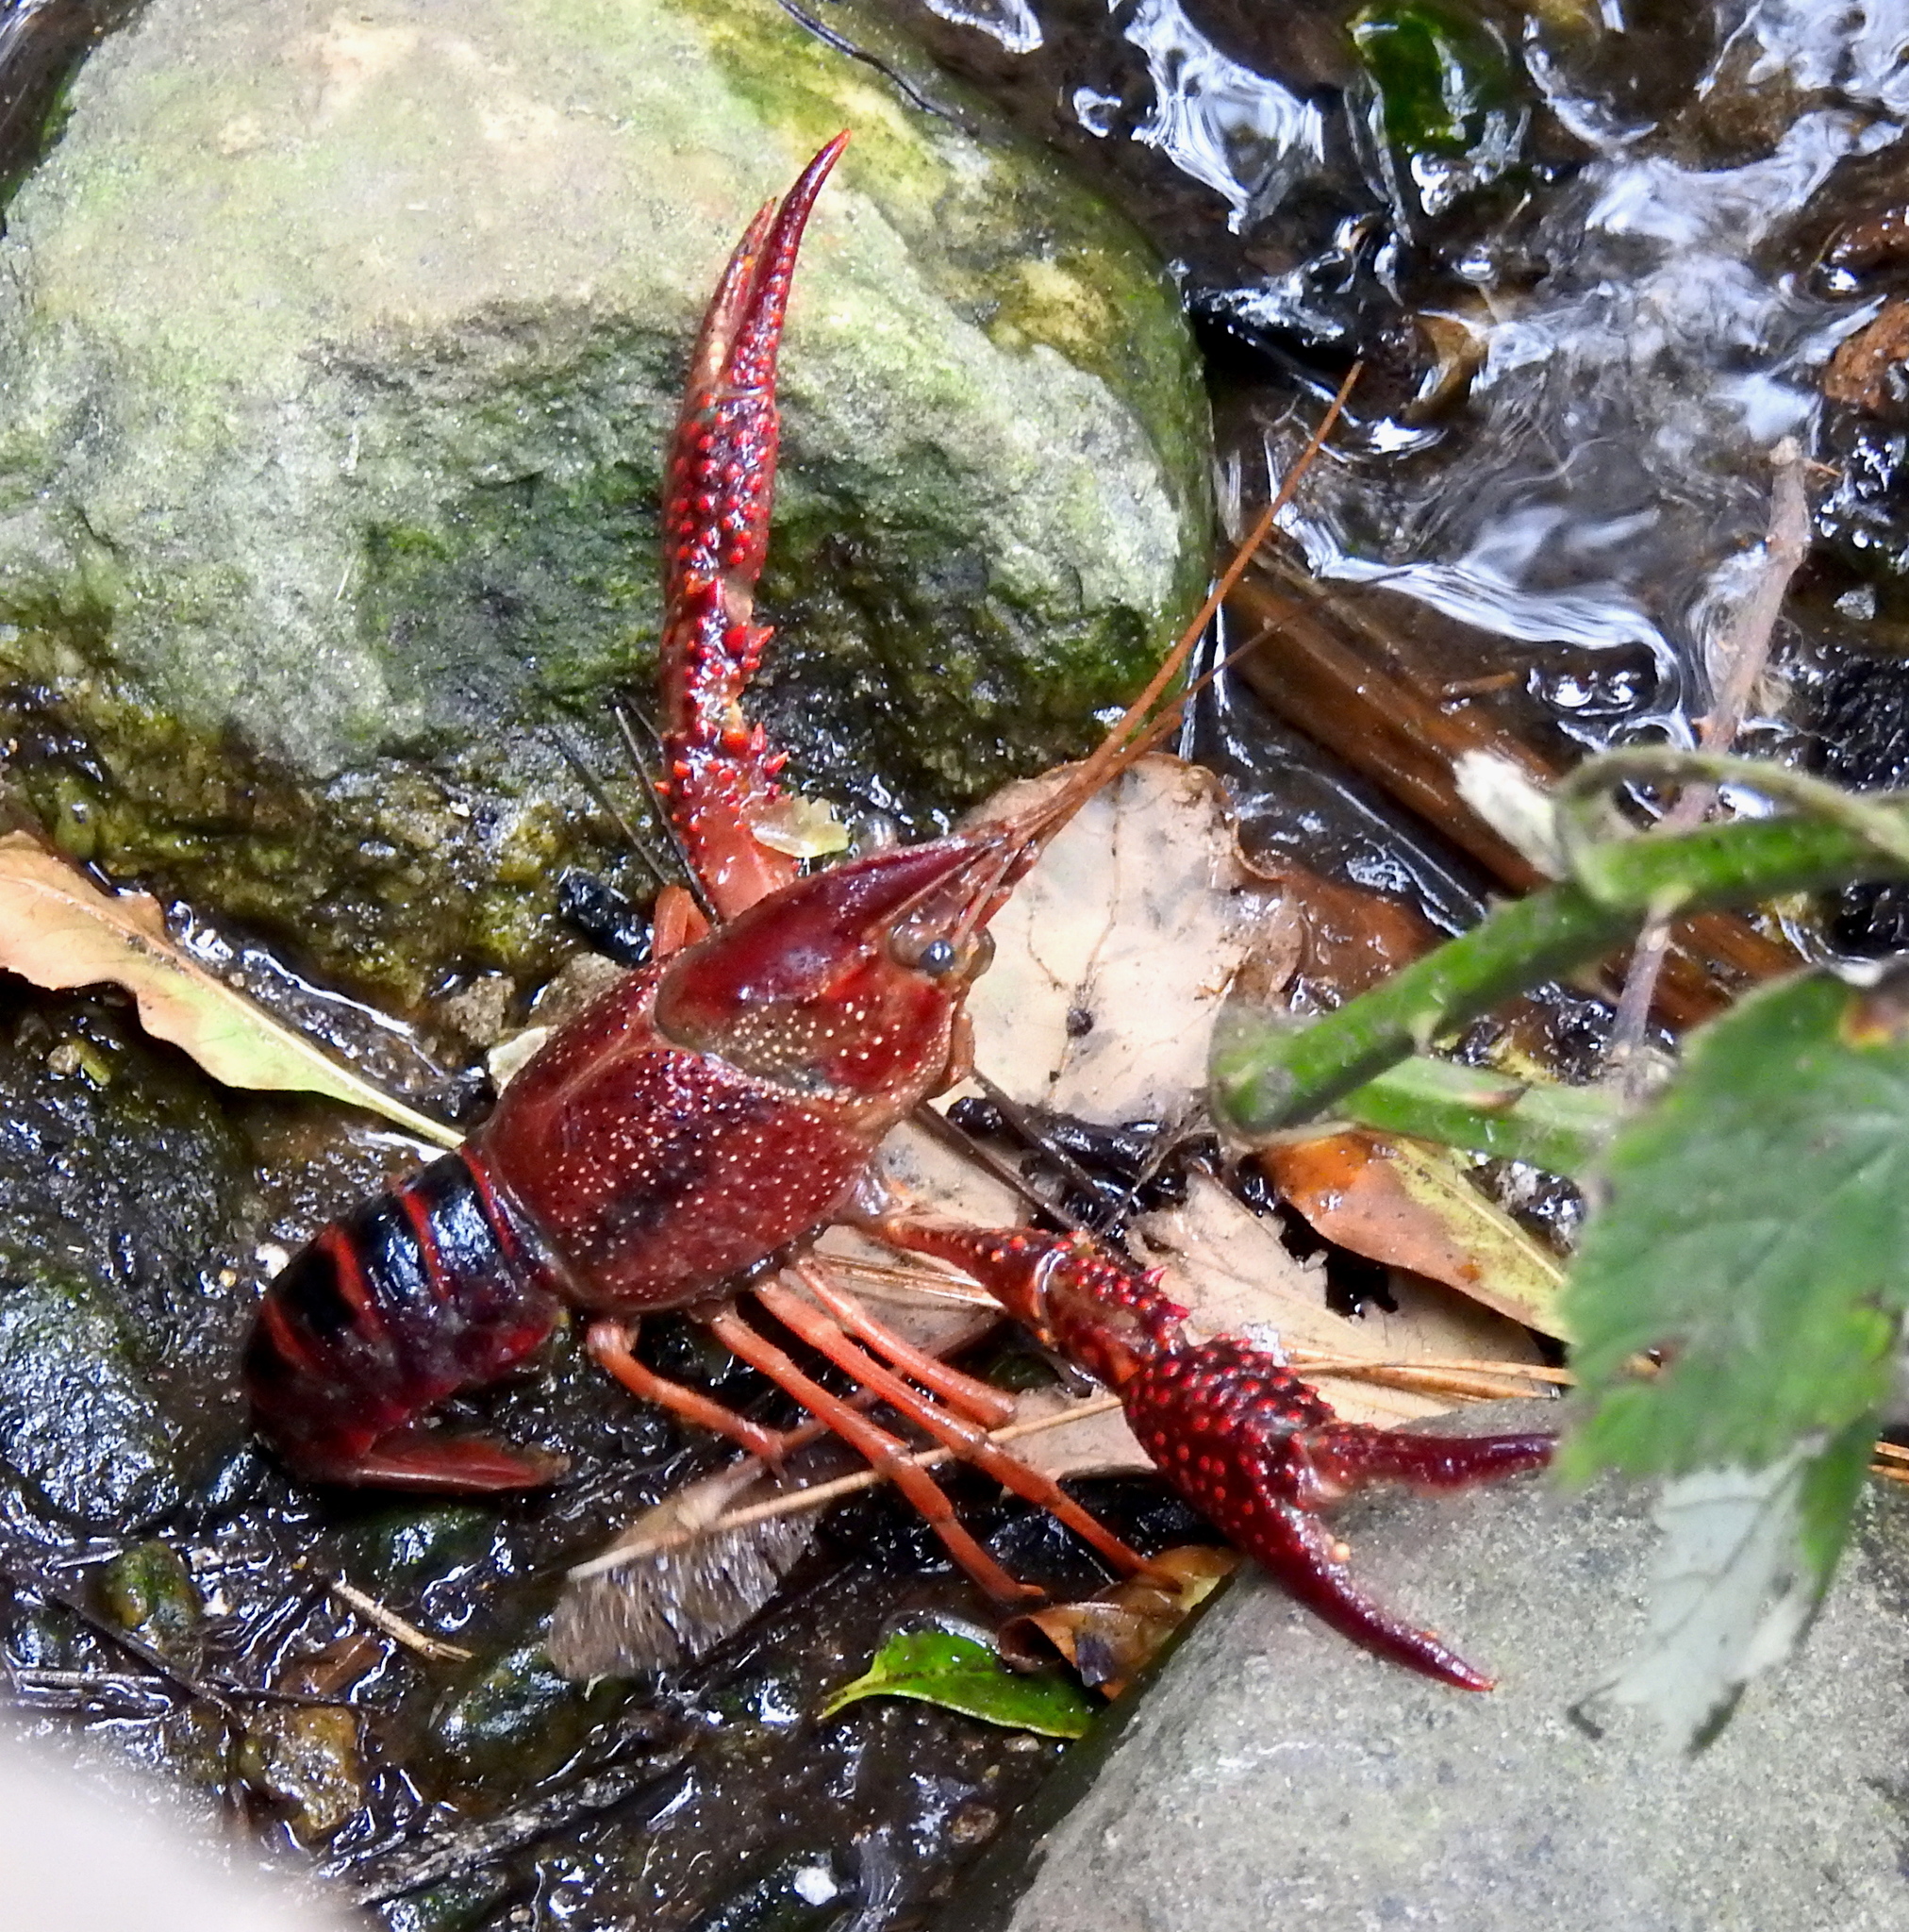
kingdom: Animalia
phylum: Arthropoda
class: Malacostraca
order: Decapoda
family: Cambaridae
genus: Procambarus
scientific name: Procambarus clarkii
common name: Red swamp crayfish
